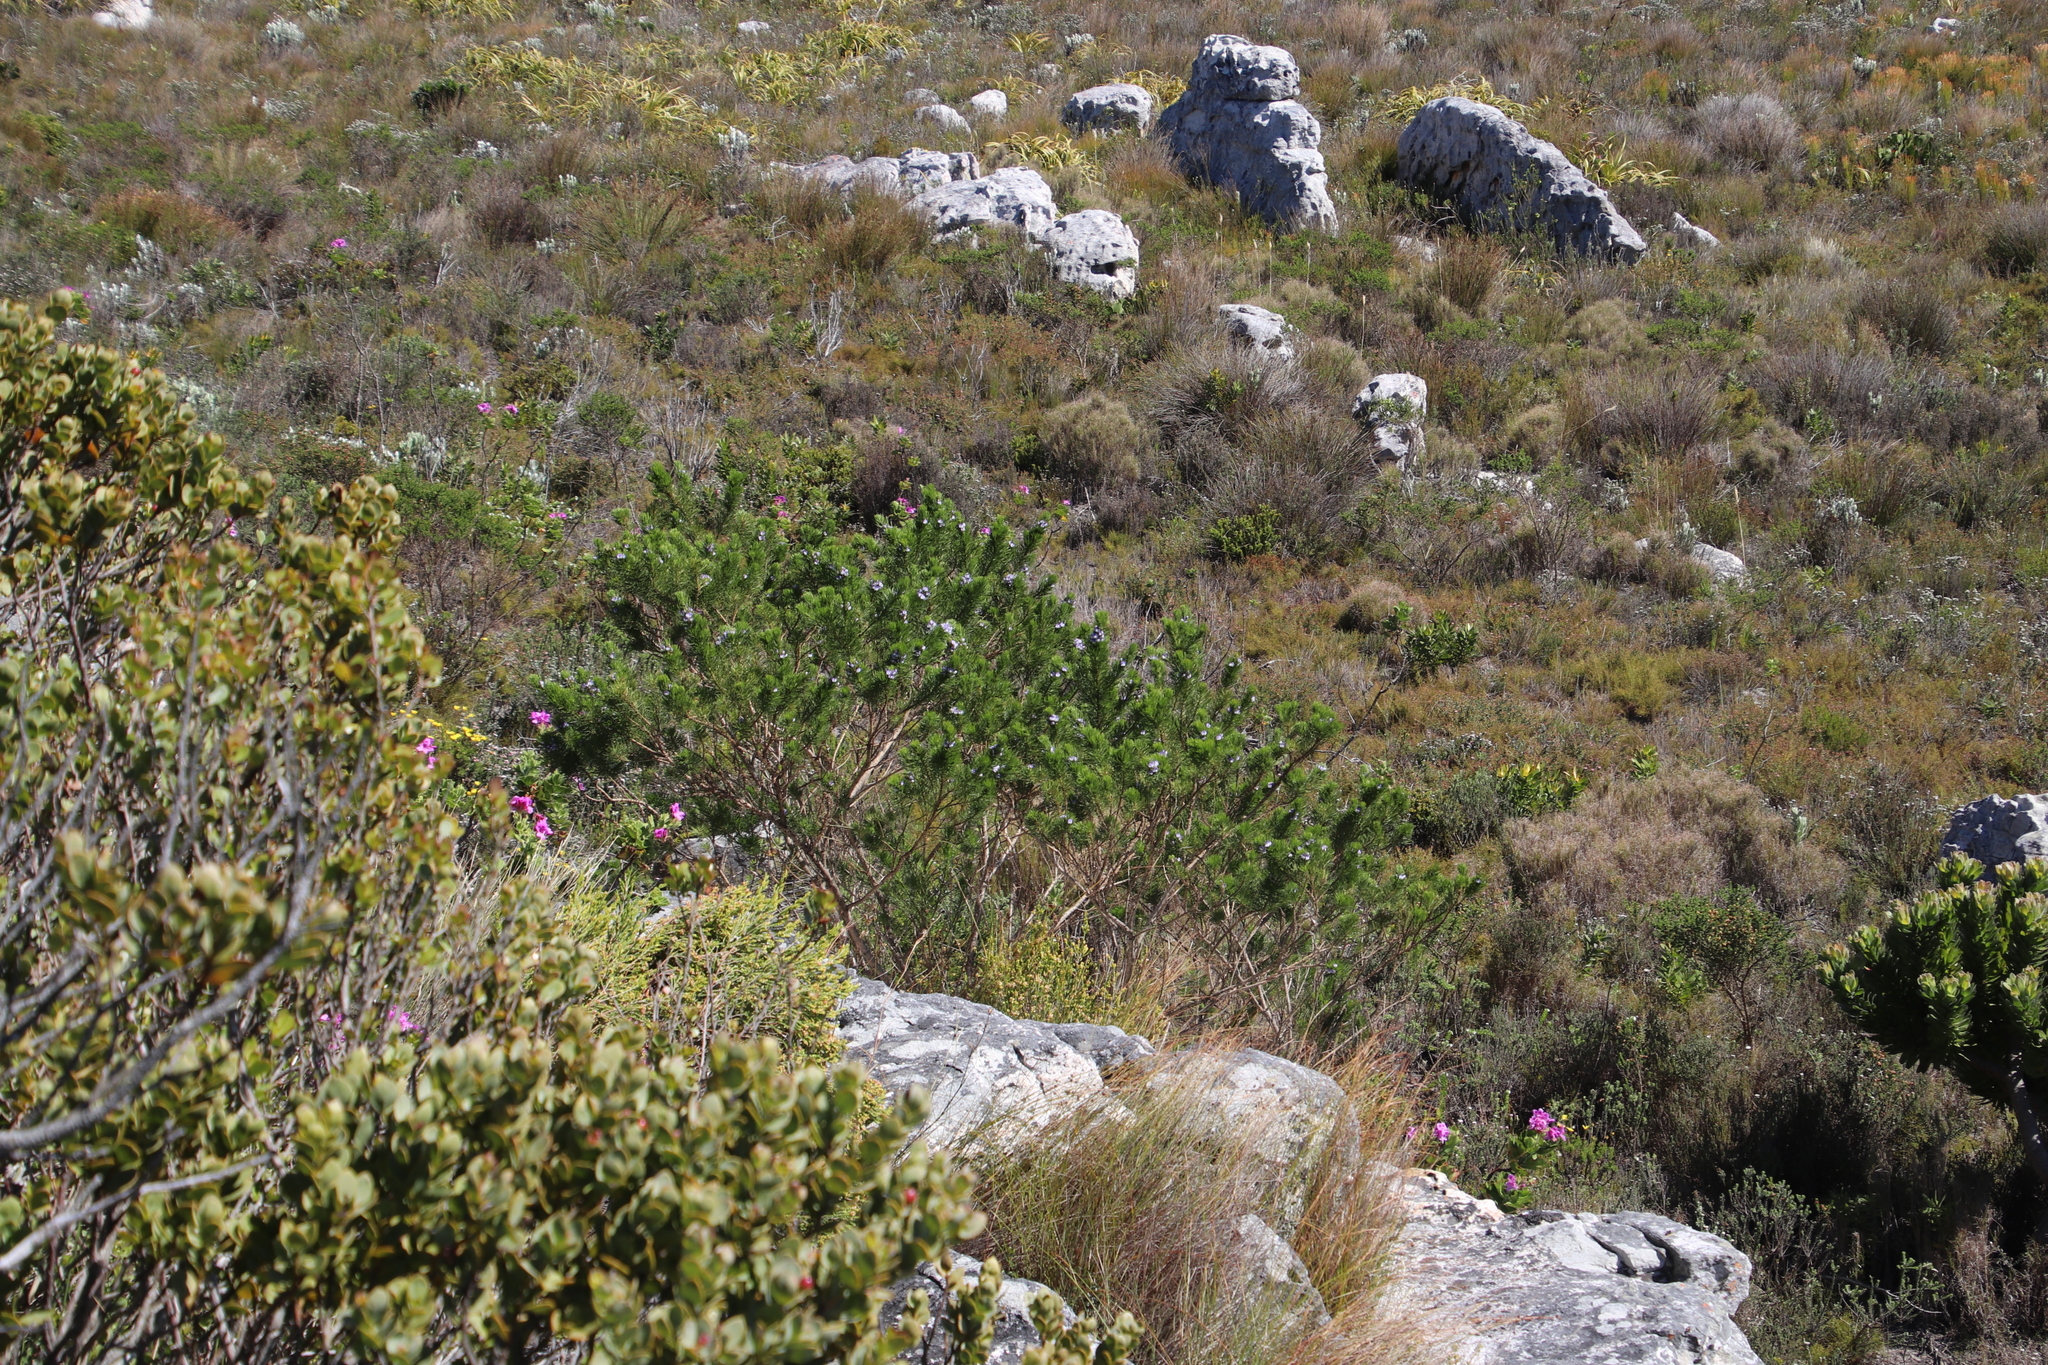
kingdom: Plantae
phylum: Tracheophyta
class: Magnoliopsida
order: Fabales
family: Fabaceae
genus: Psoralea
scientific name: Psoralea pinnata
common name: African scurfpea
